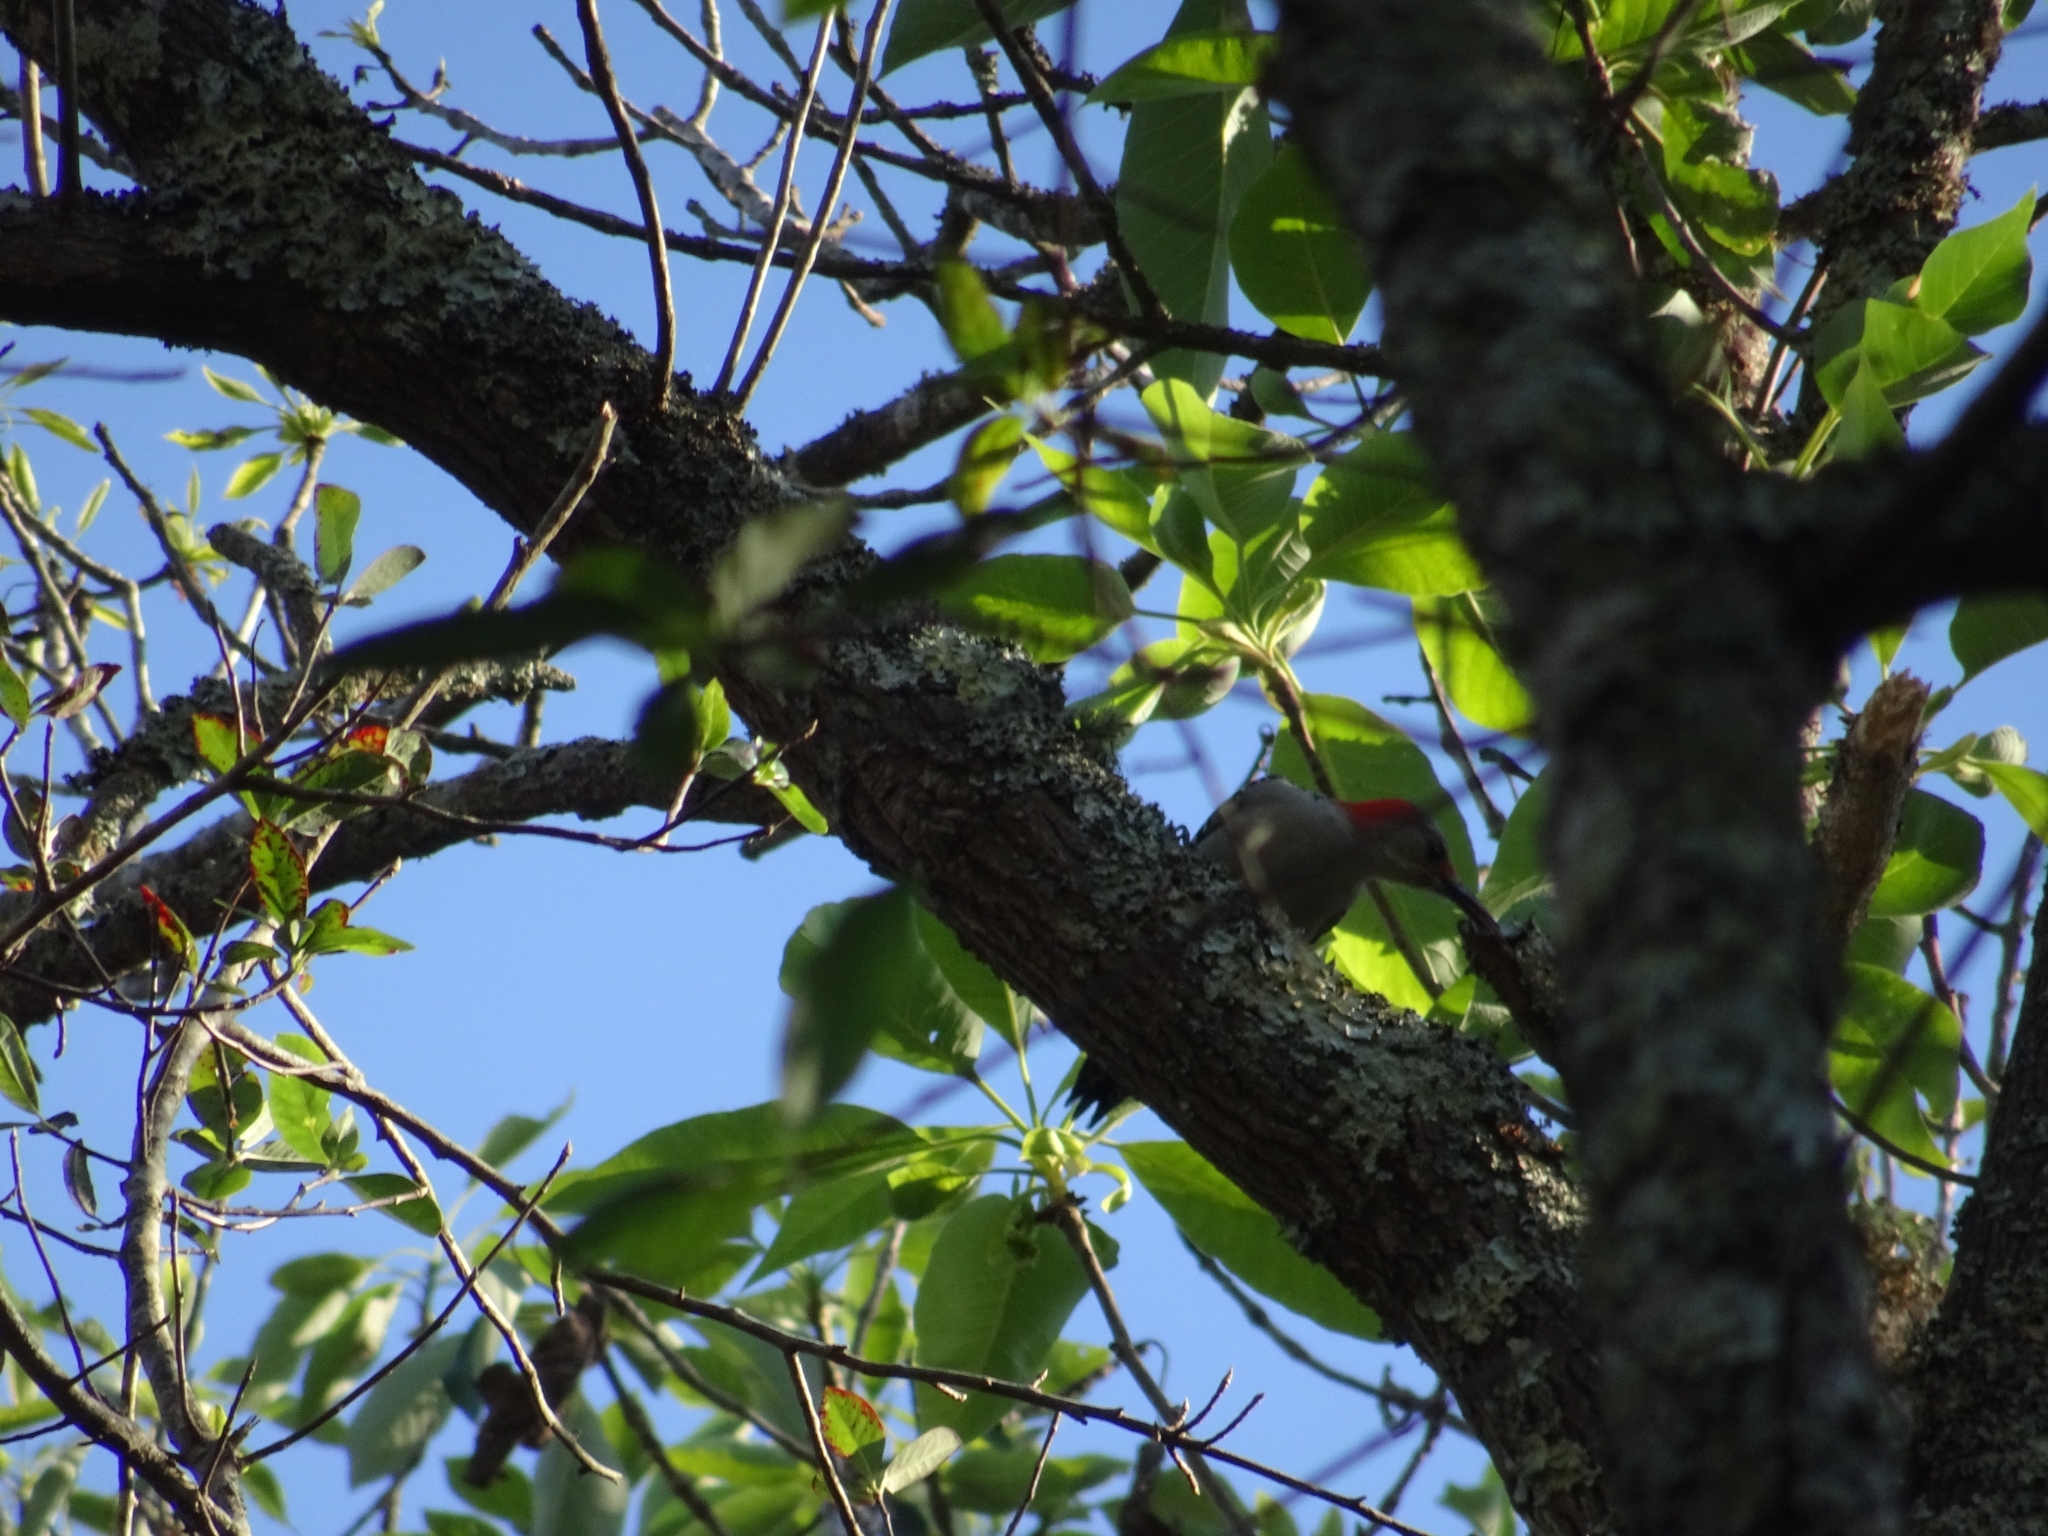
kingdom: Animalia
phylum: Chordata
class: Aves
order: Piciformes
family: Picidae
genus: Melanerpes
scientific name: Melanerpes carolinus
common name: Red-bellied woodpecker
